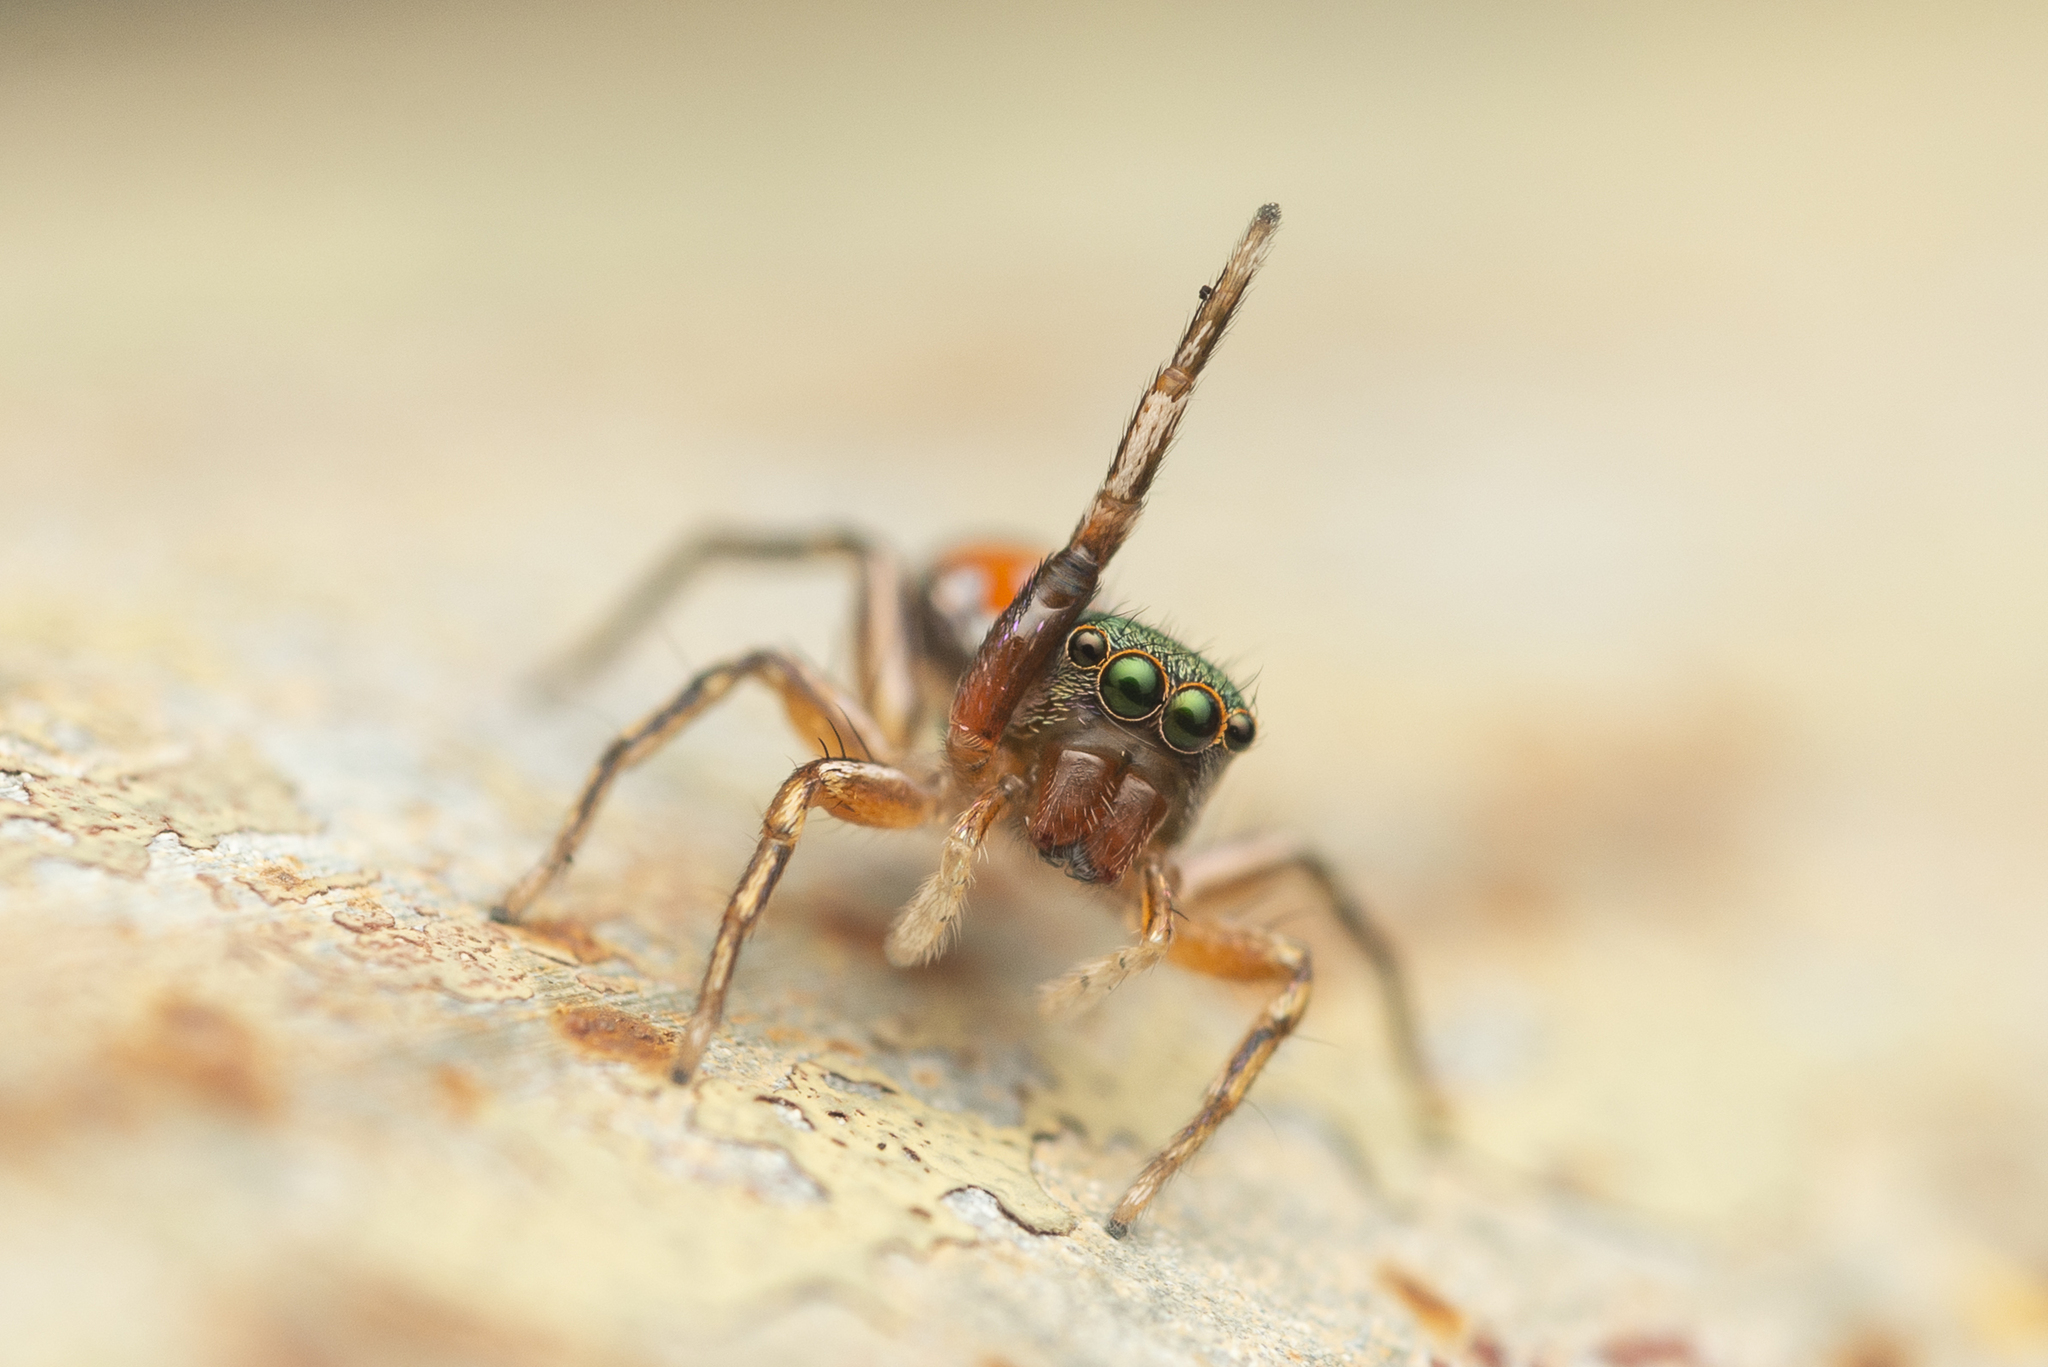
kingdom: Animalia
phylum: Arthropoda
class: Arachnida
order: Araneae
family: Salticidae
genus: Siler
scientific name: Siler collingwoodi
